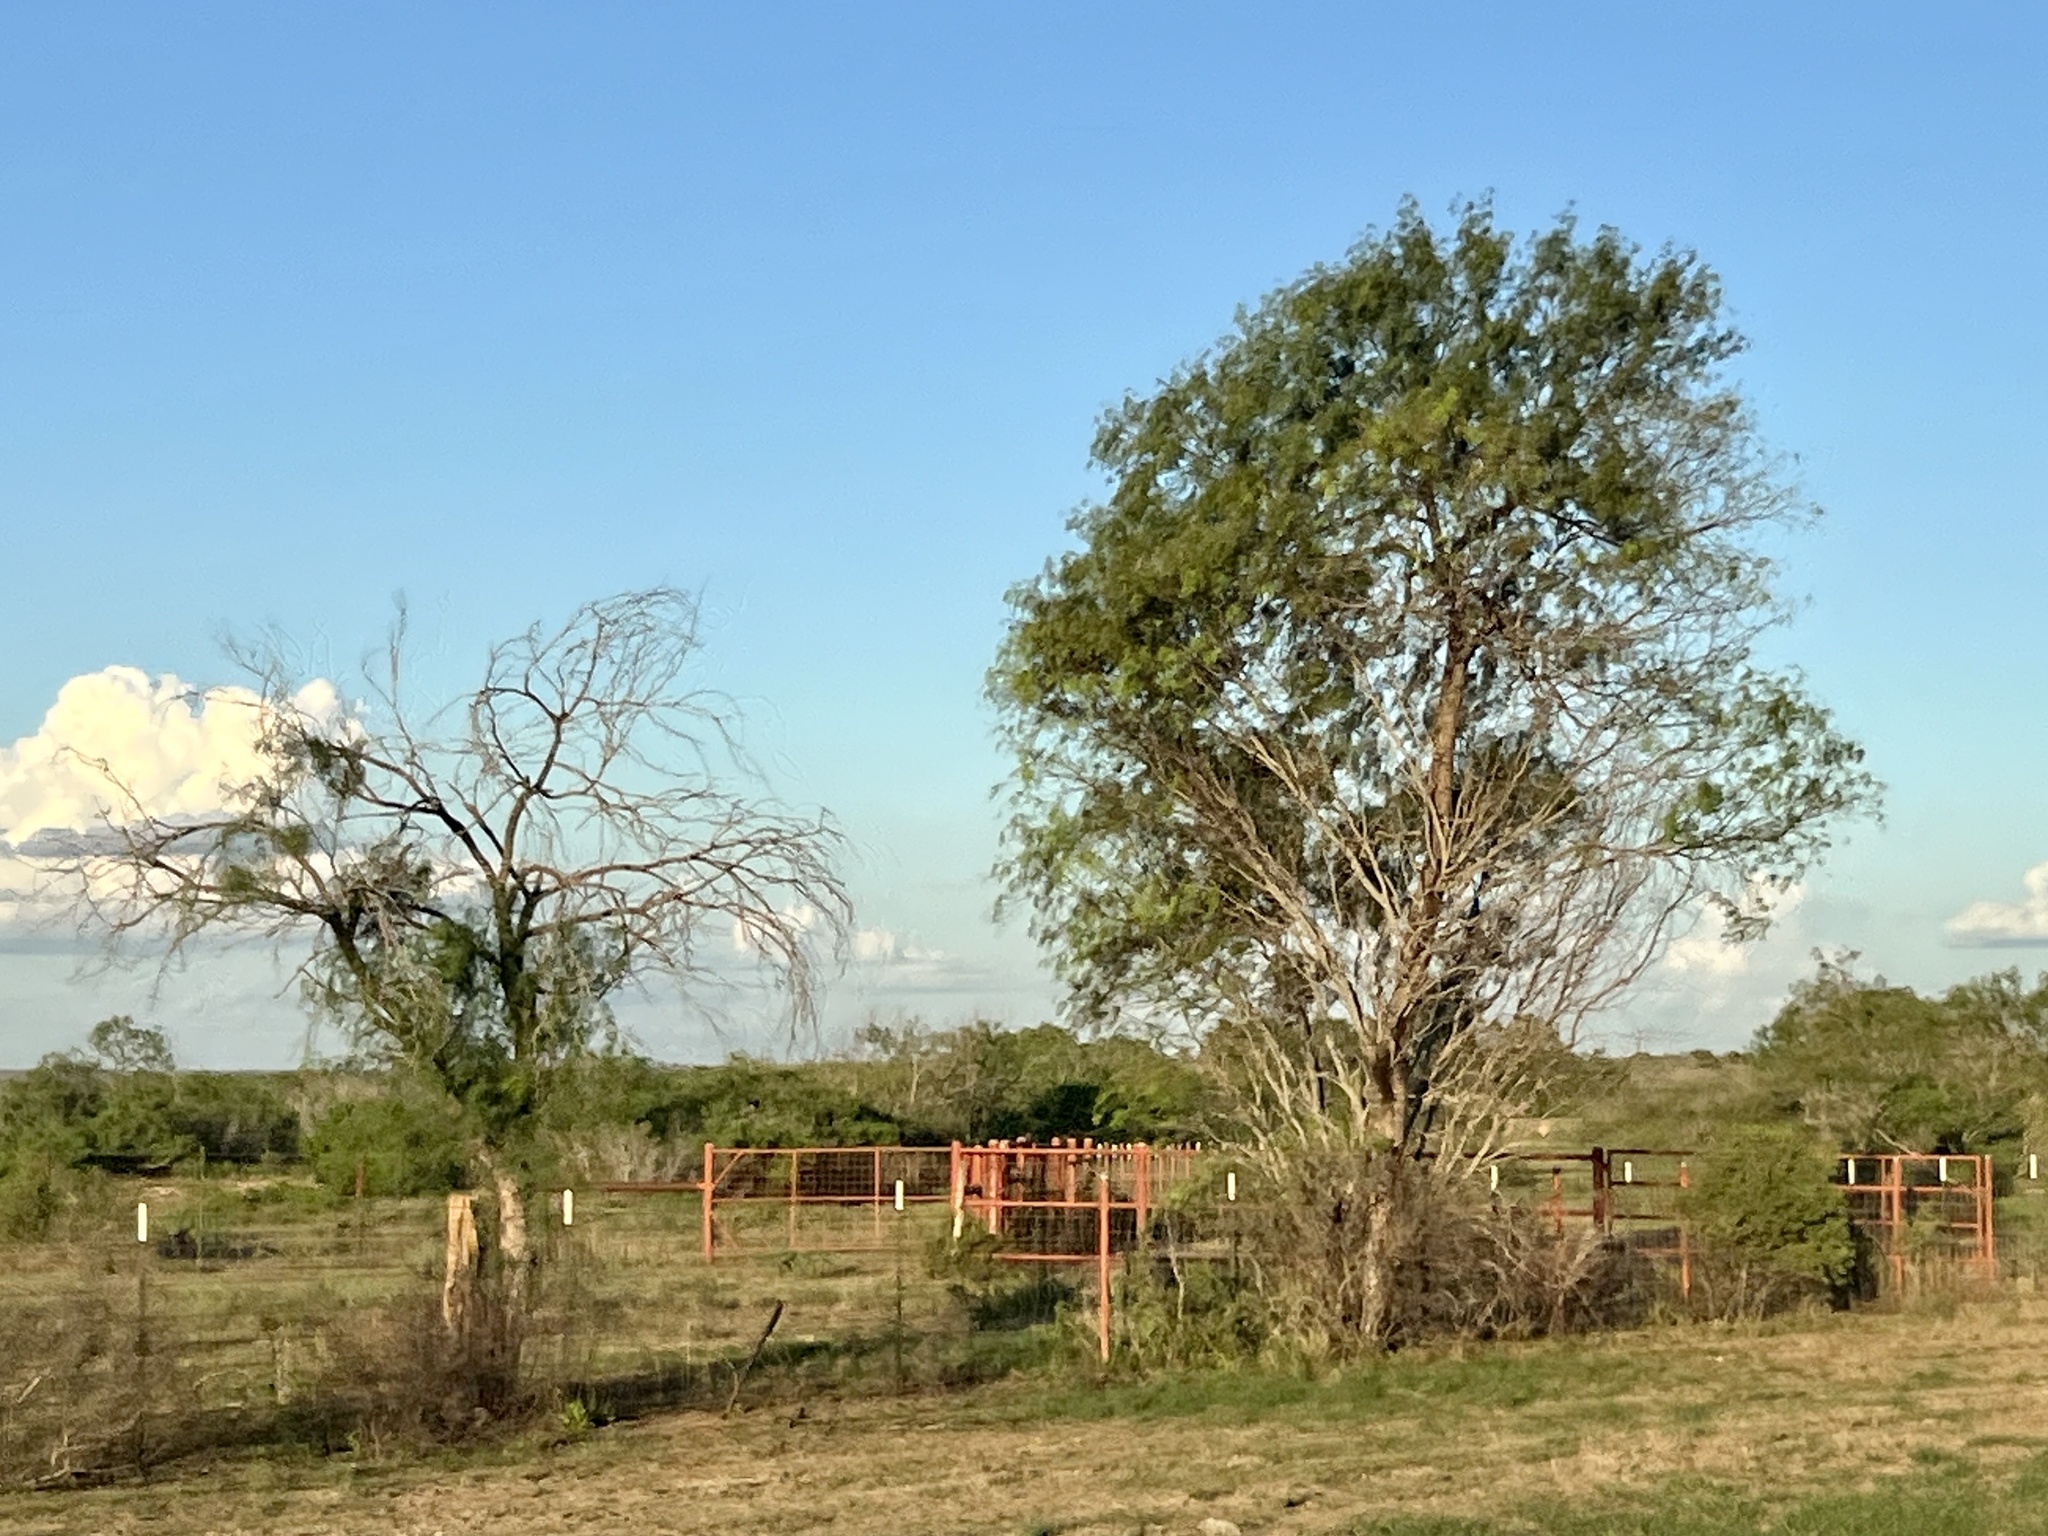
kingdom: Plantae
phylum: Tracheophyta
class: Magnoliopsida
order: Fabales
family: Fabaceae
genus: Prosopis
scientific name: Prosopis glandulosa
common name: Honey mesquite
